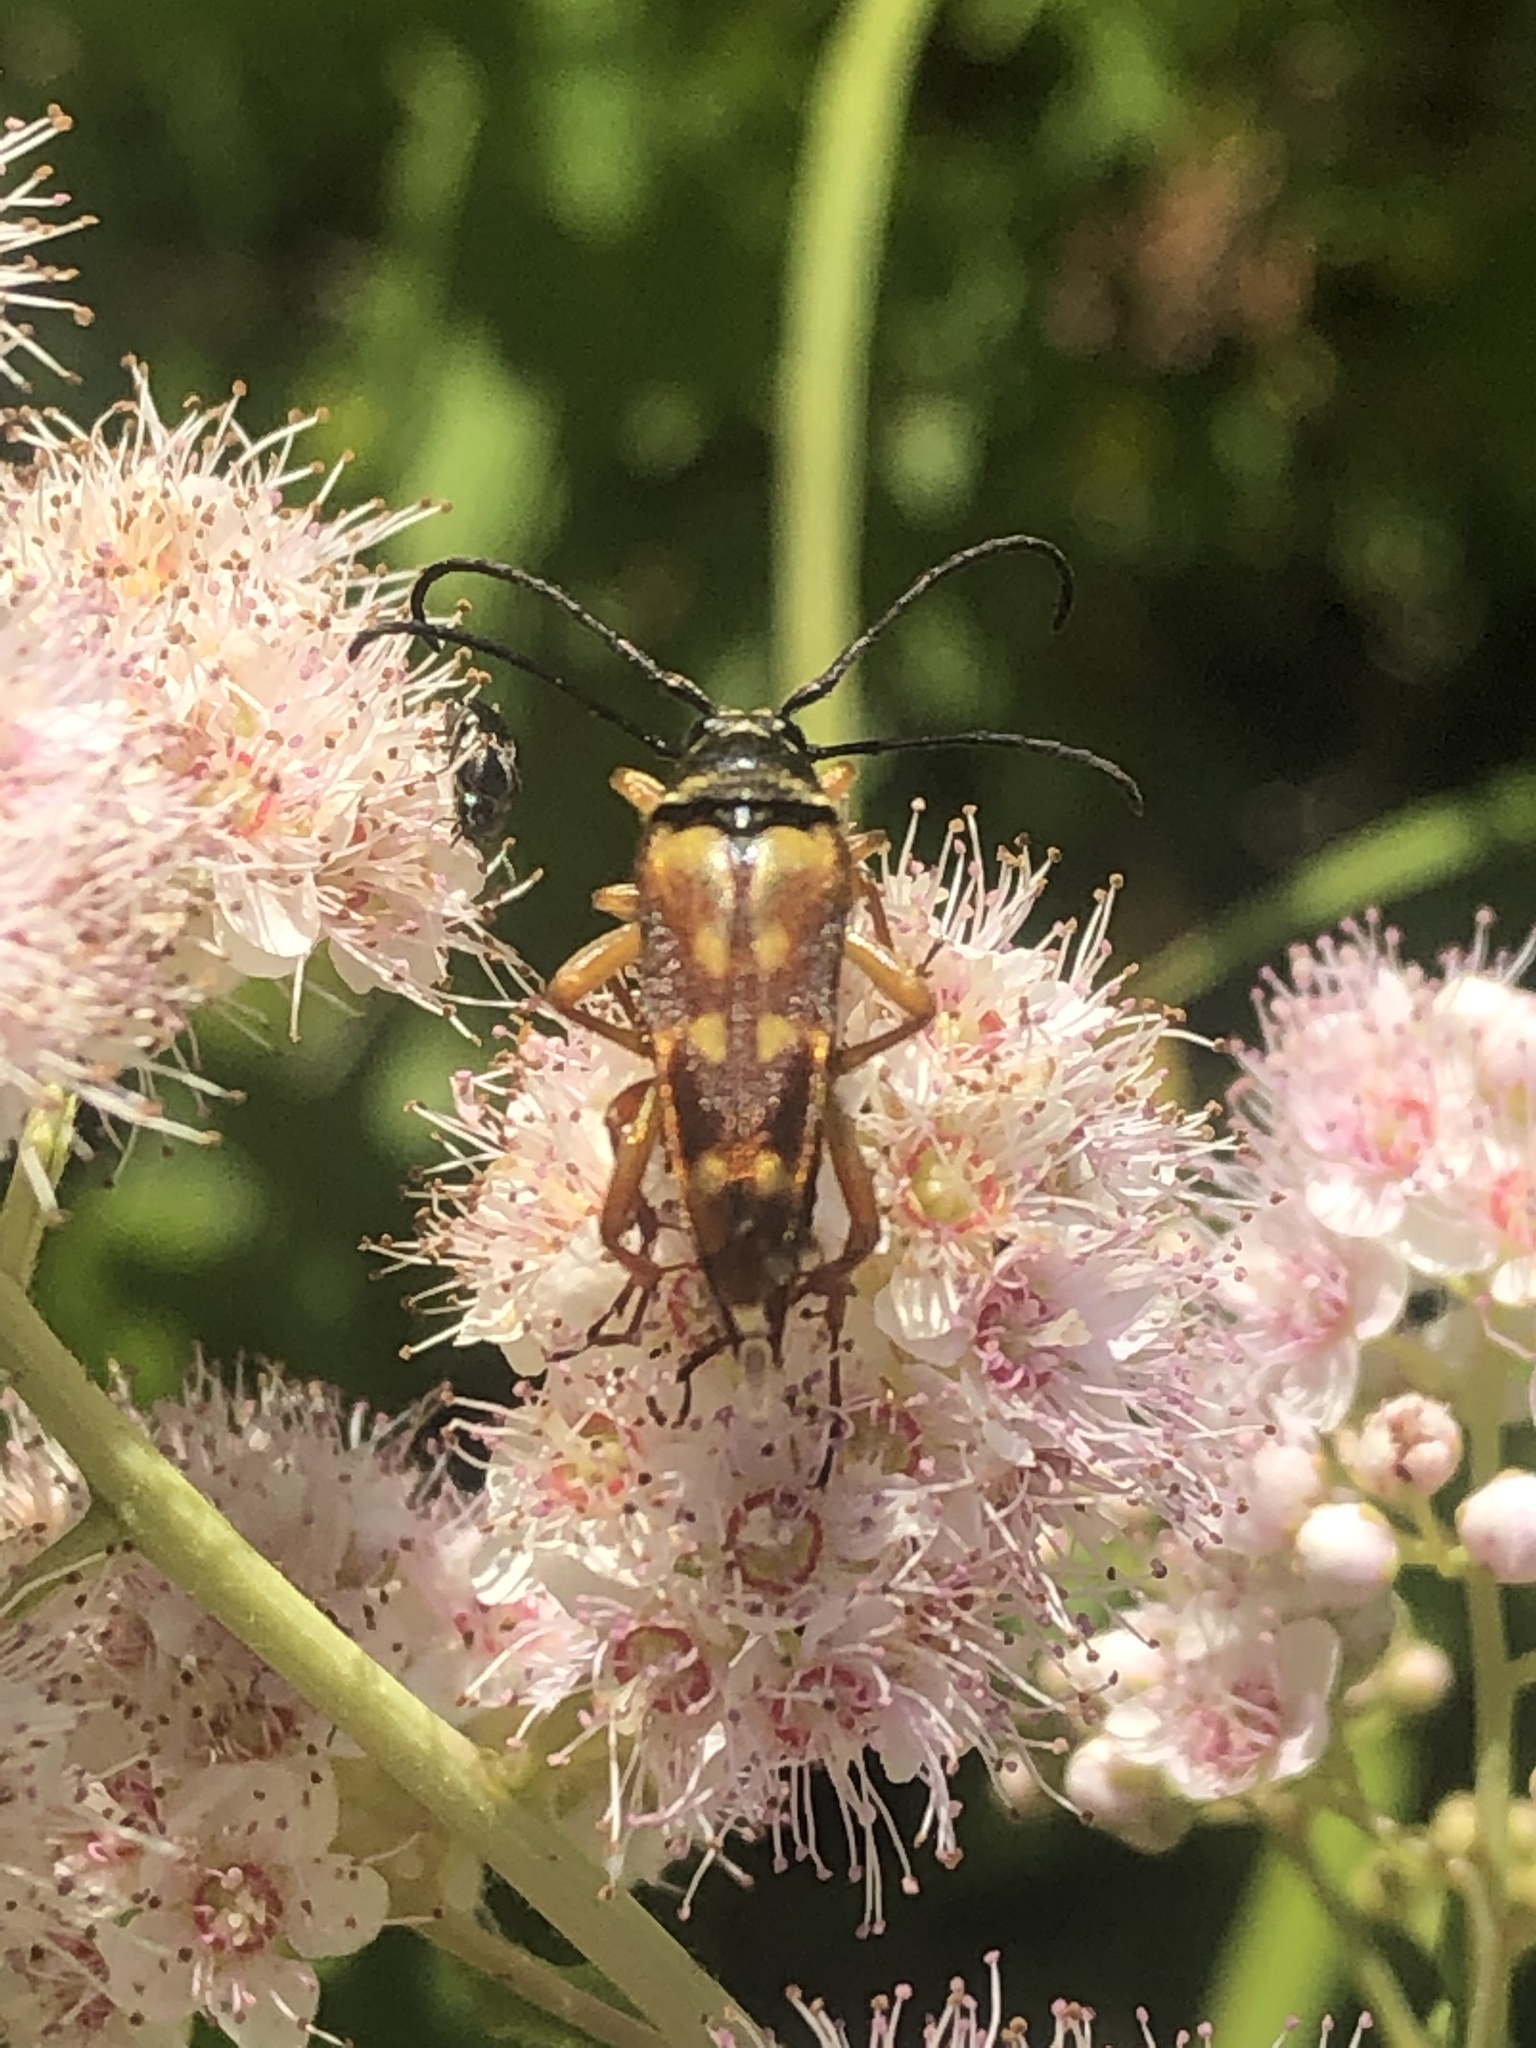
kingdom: Animalia
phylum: Arthropoda
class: Insecta
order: Coleoptera
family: Cerambycidae
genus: Typocerus
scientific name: Typocerus velutinus
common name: Banded longhorn beetle
